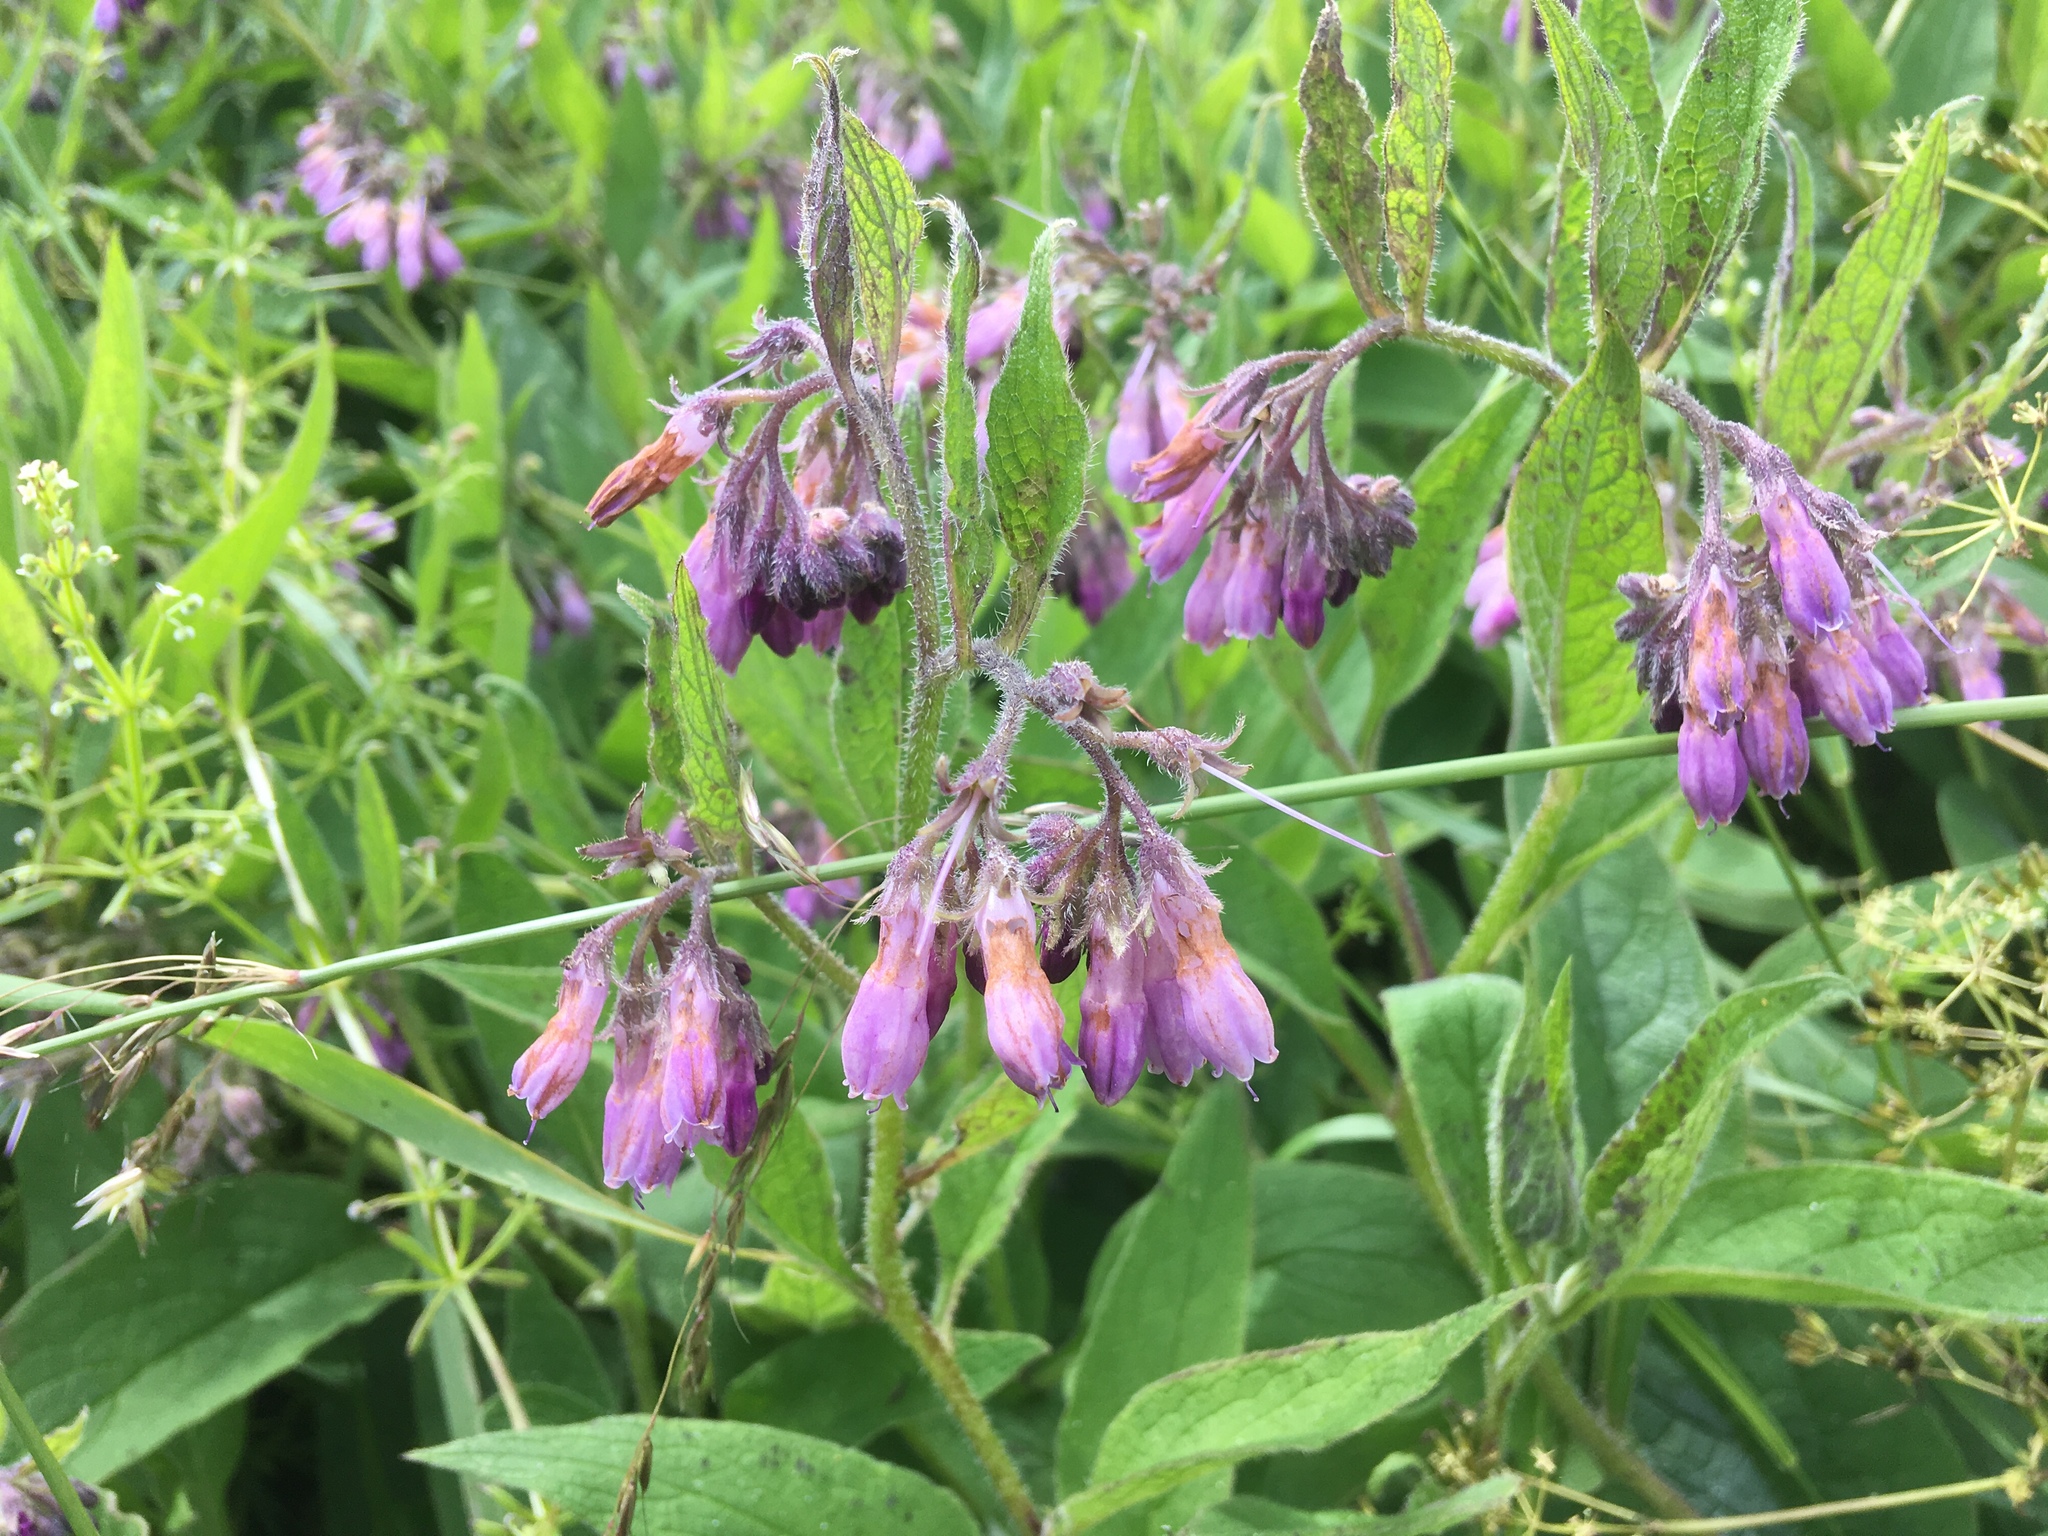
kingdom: Plantae
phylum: Tracheophyta
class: Magnoliopsida
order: Boraginales
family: Boraginaceae
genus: Symphytum
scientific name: Symphytum officinale
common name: Common comfrey
